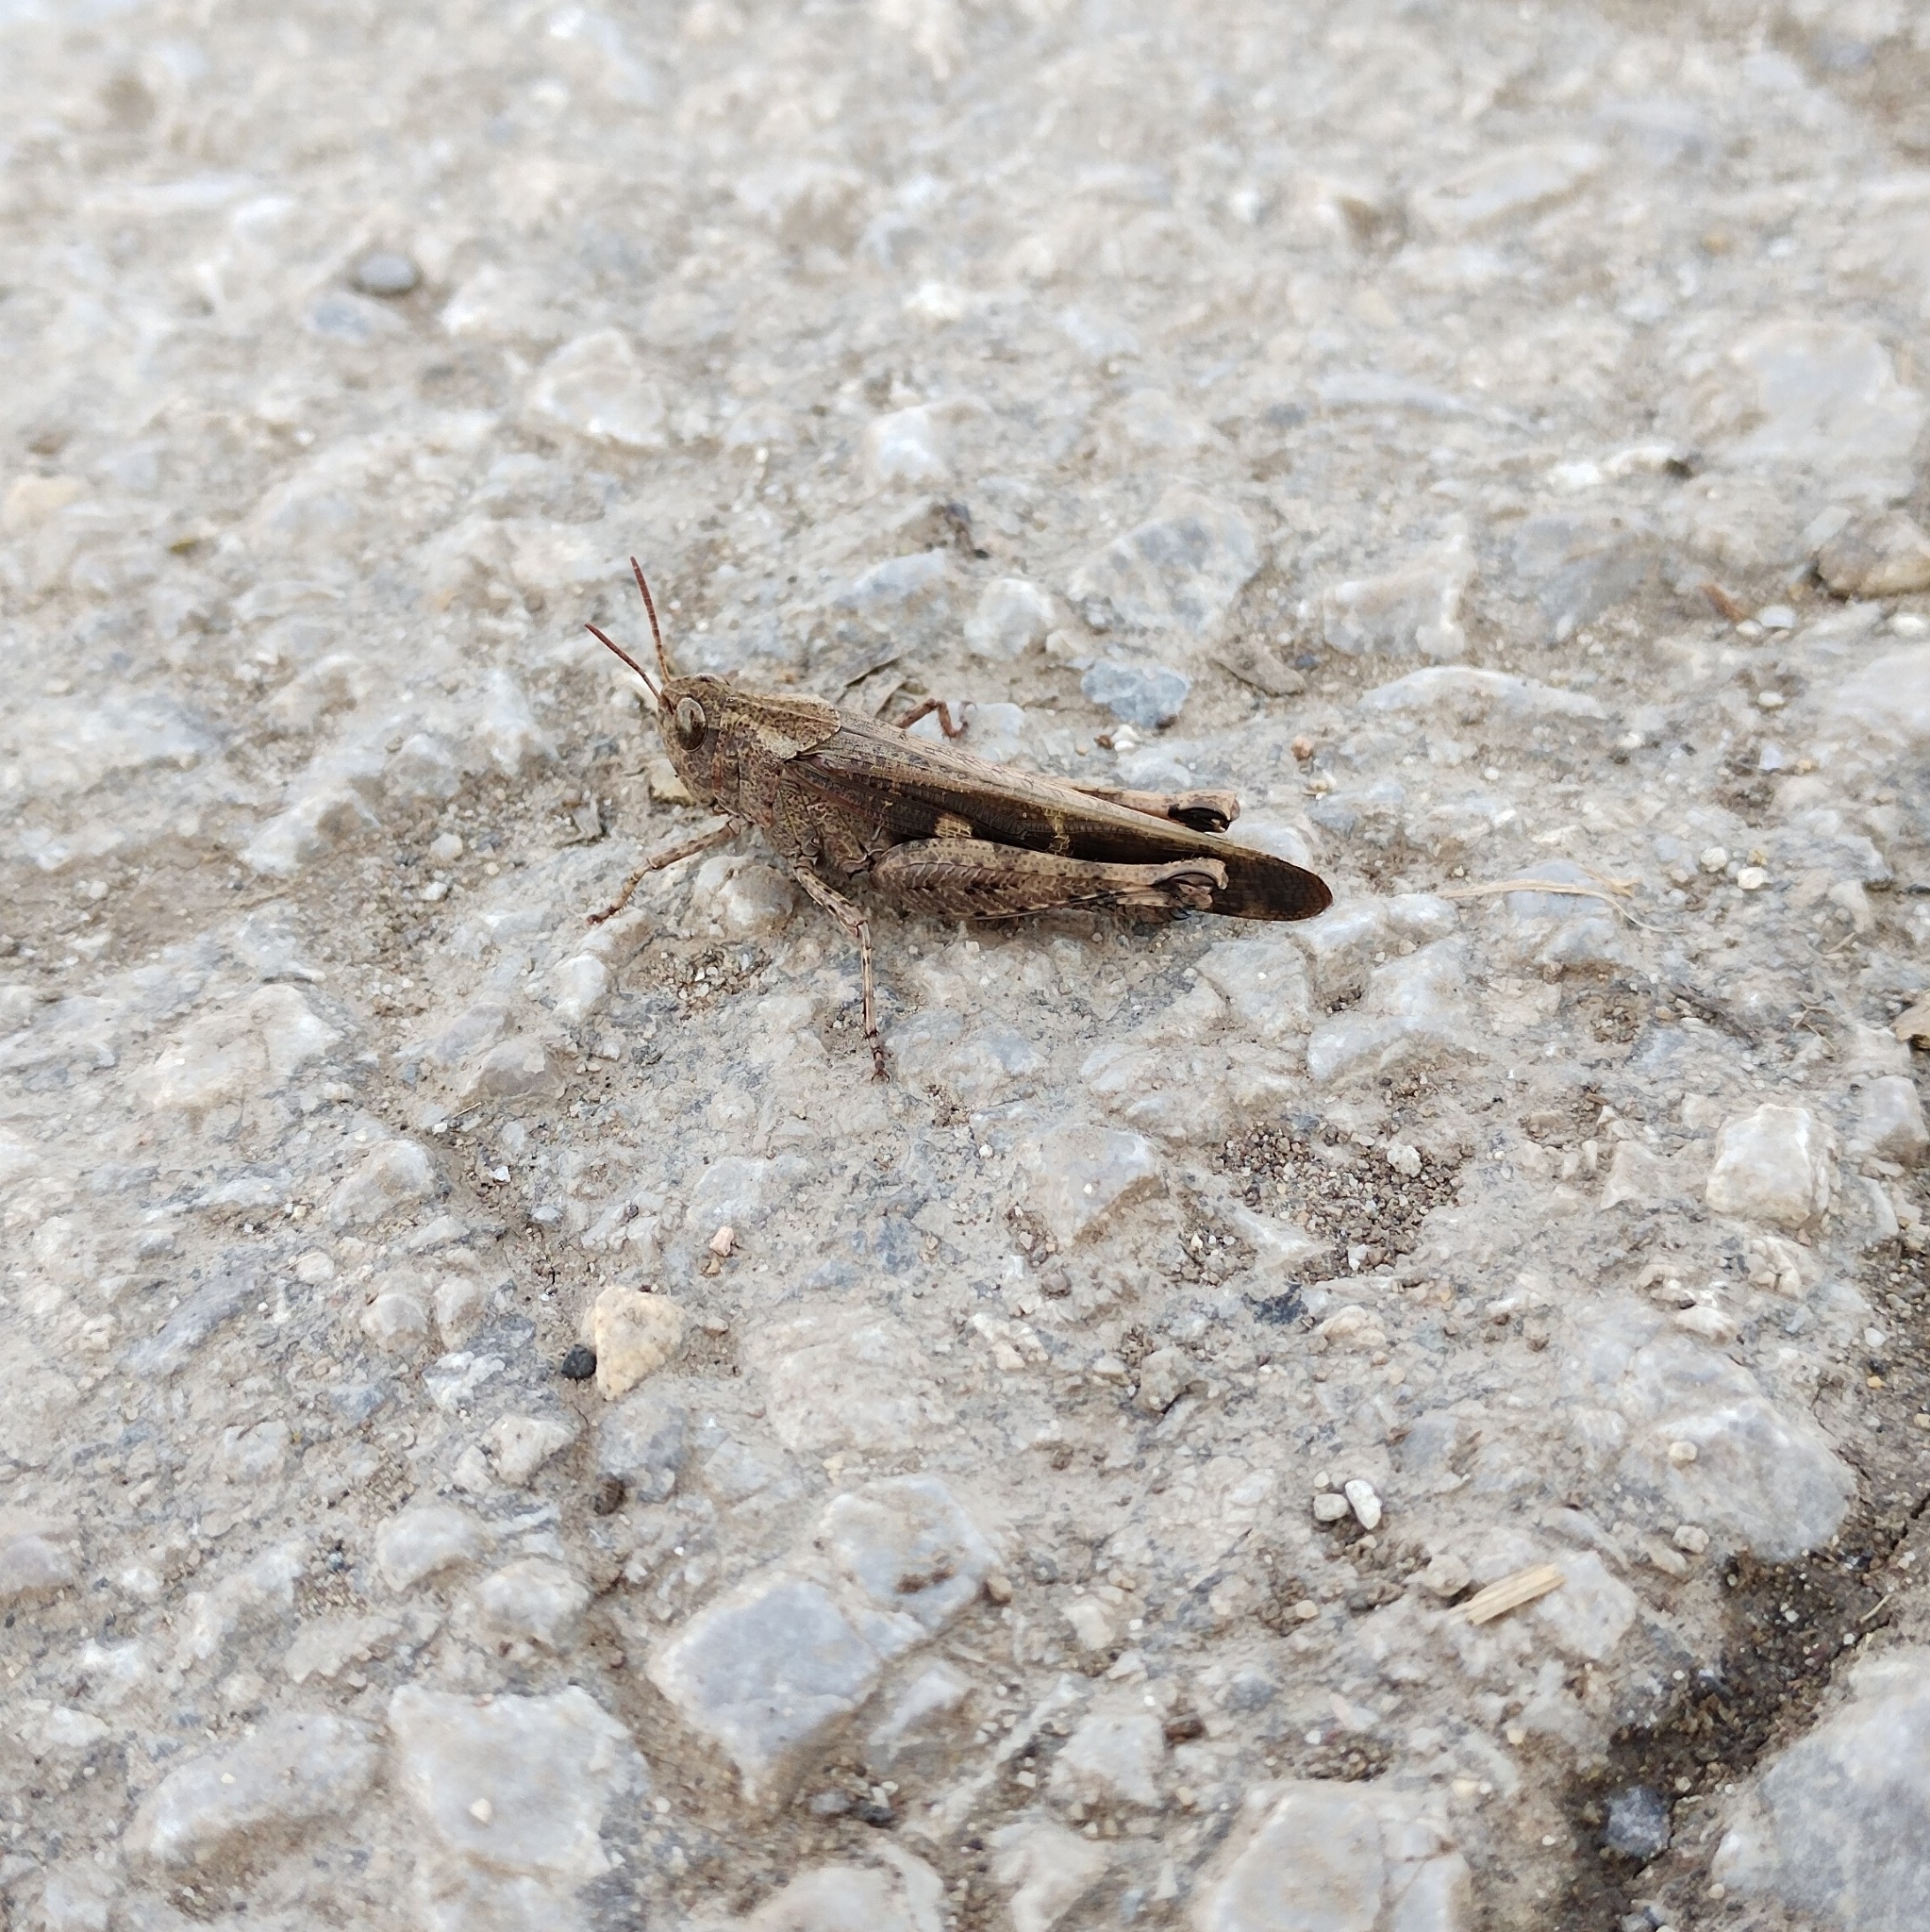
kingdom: Animalia
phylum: Arthropoda
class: Insecta
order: Orthoptera
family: Acrididae
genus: Aiolopus
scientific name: Aiolopus strepens
